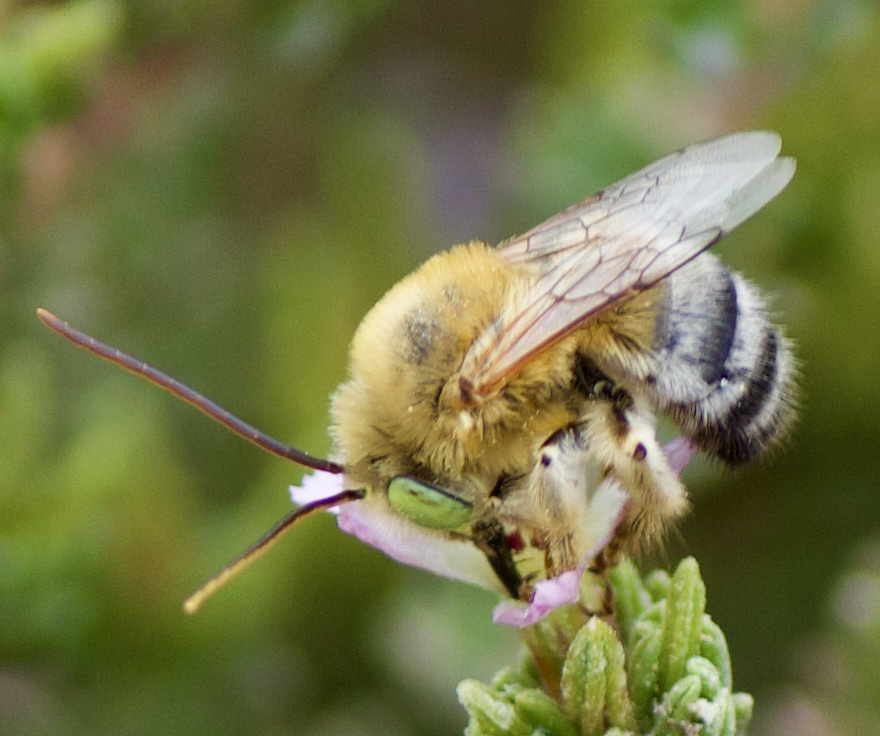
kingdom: Animalia
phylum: Arthropoda
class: Insecta
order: Hymenoptera
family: Apidae
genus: Svastra
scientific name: Svastra flavitarsis
